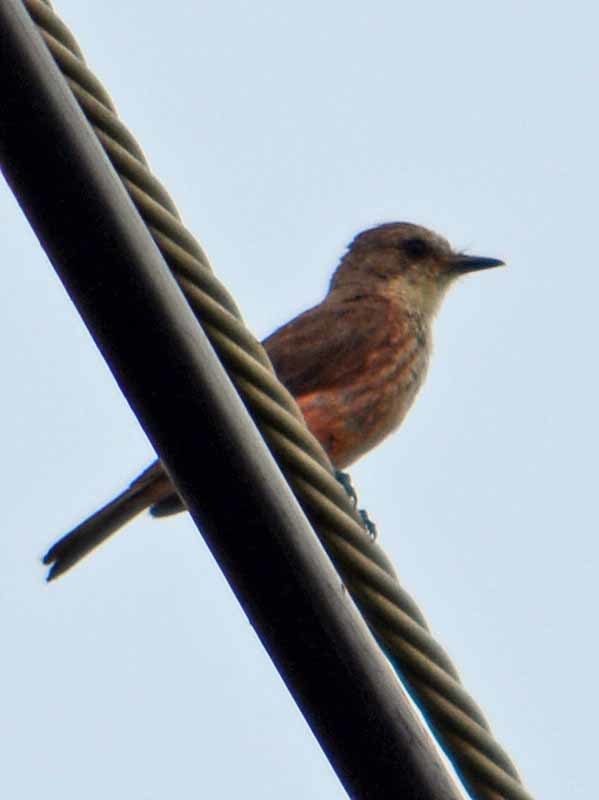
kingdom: Animalia
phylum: Chordata
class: Aves
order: Passeriformes
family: Tyrannidae
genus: Pyrocephalus
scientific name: Pyrocephalus rubinus
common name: Vermilion flycatcher
